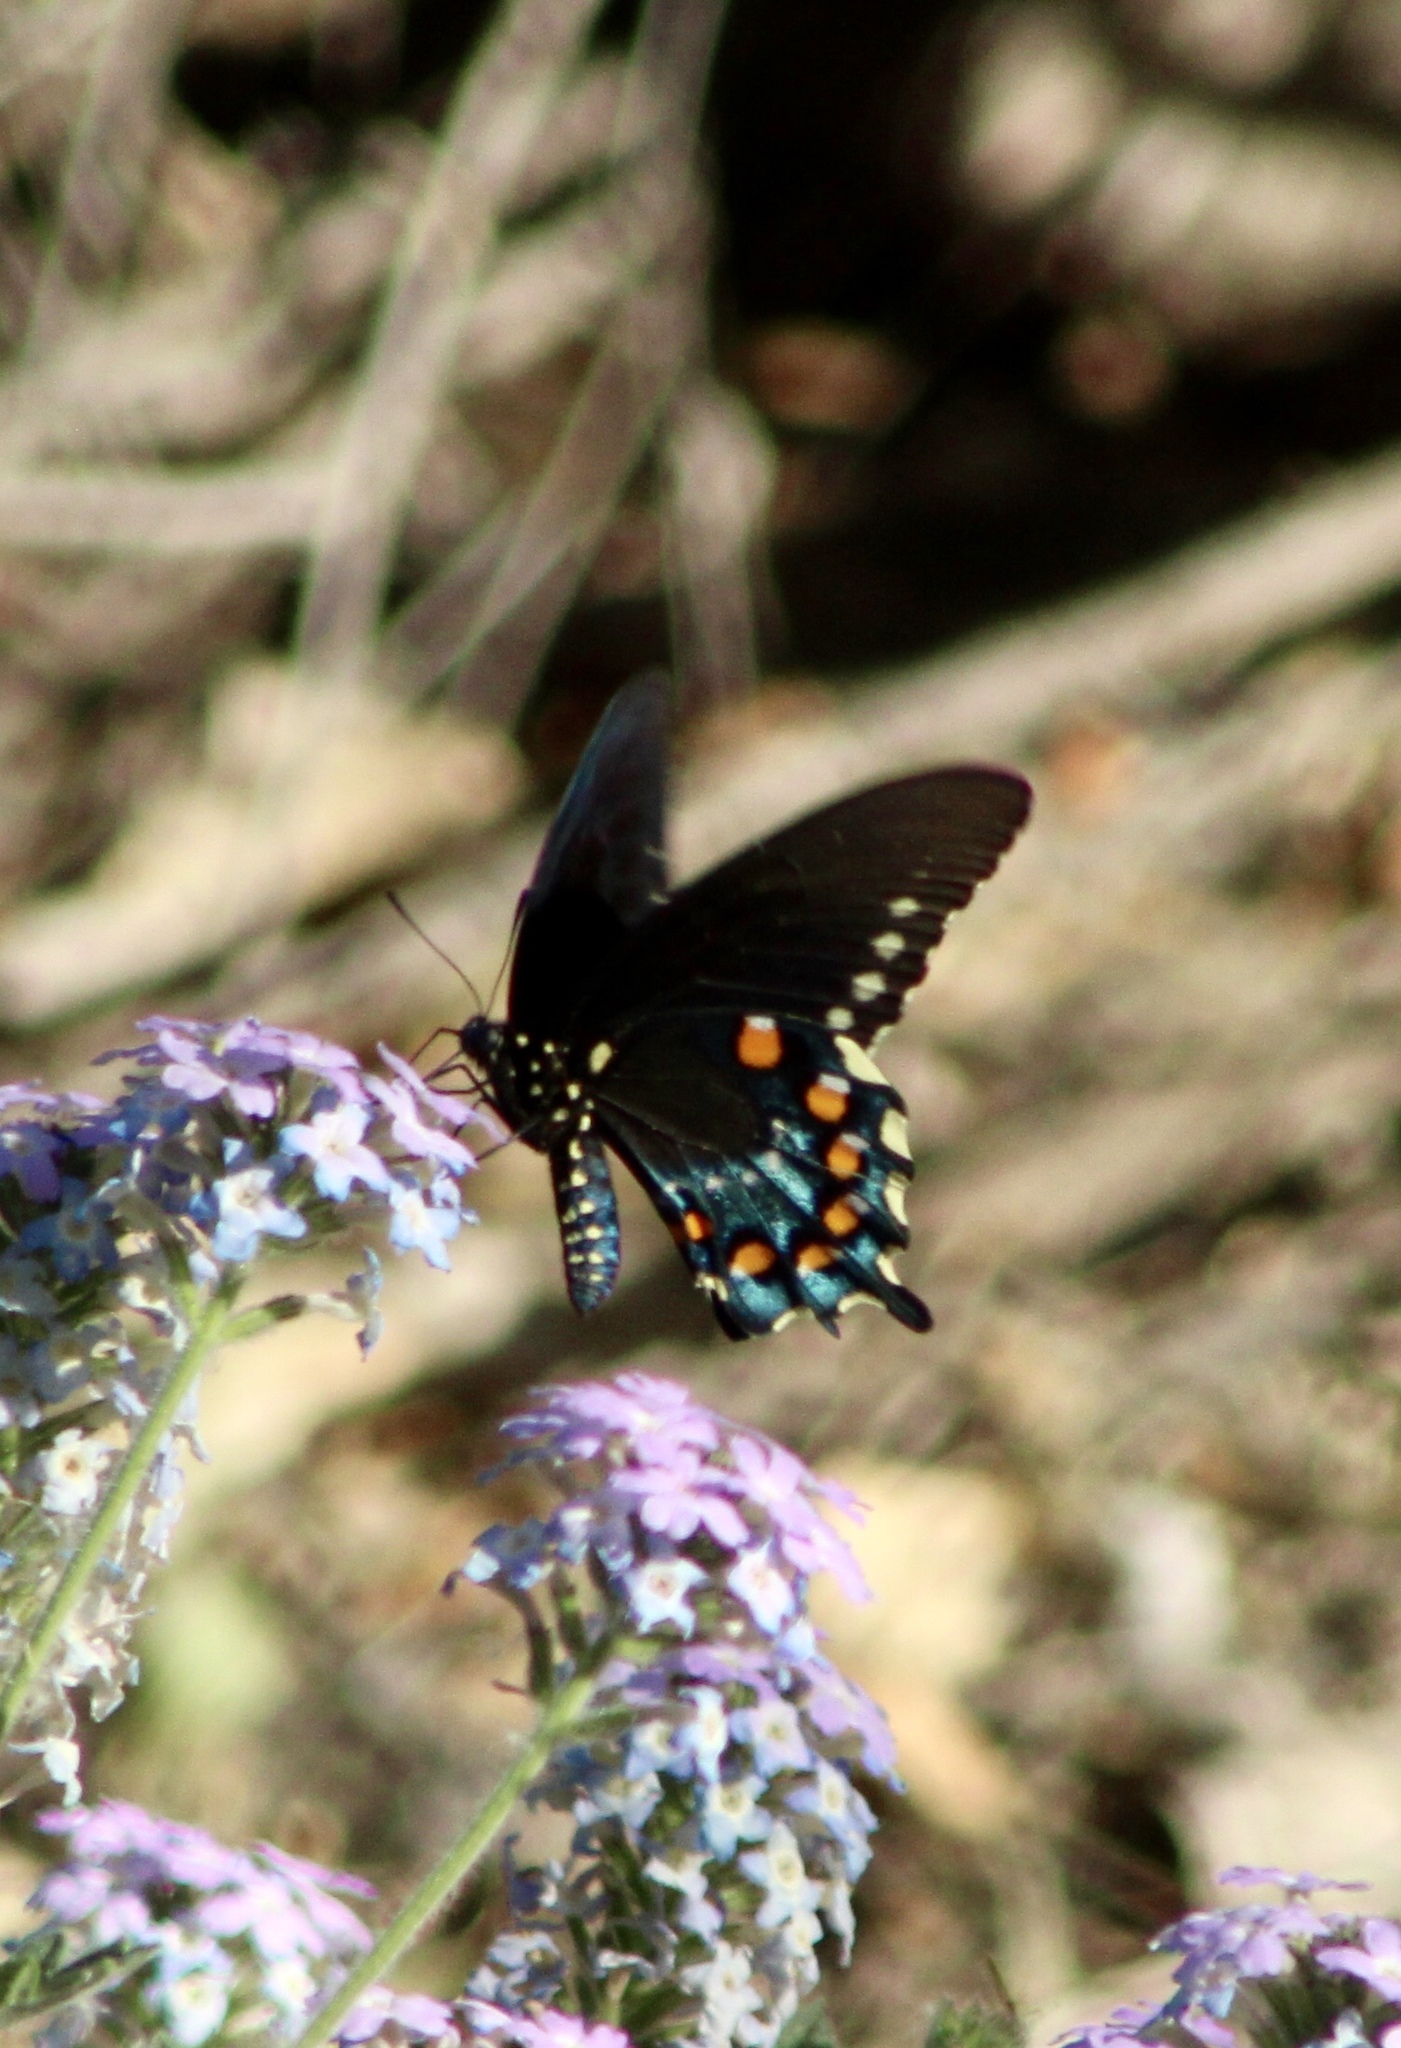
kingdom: Animalia
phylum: Arthropoda
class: Insecta
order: Lepidoptera
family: Papilionidae
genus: Battus
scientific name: Battus philenor
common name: Pipevine swallowtail
